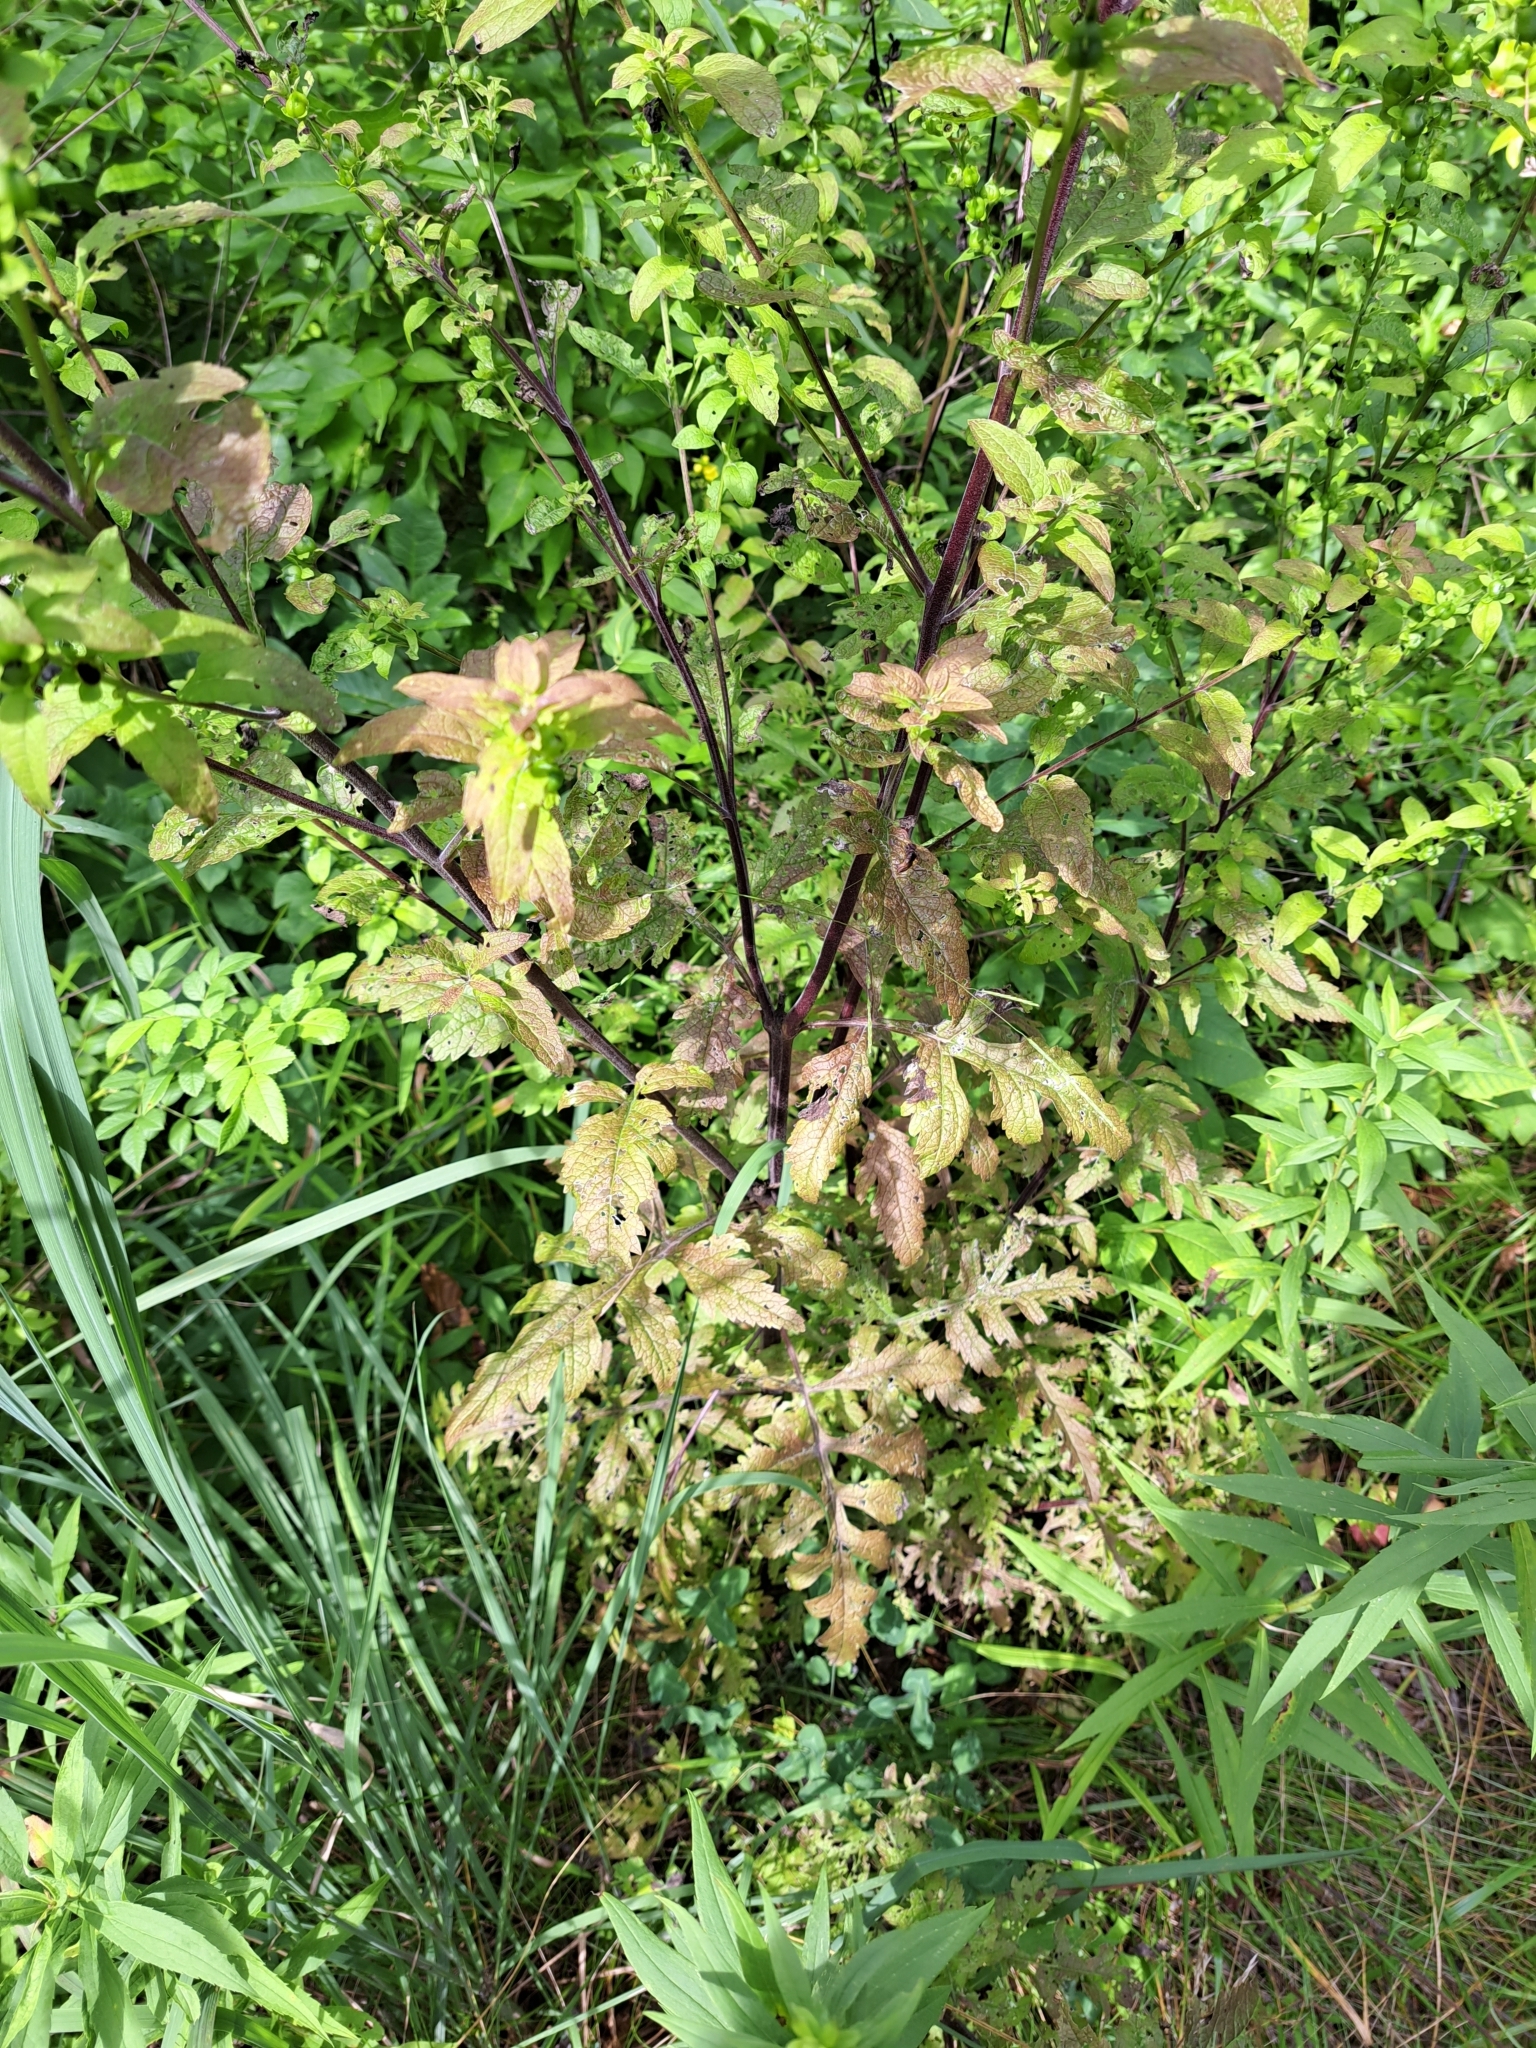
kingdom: Plantae
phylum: Tracheophyta
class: Magnoliopsida
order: Lamiales
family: Orobanchaceae
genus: Dasistoma
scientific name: Dasistoma macrophyllum
